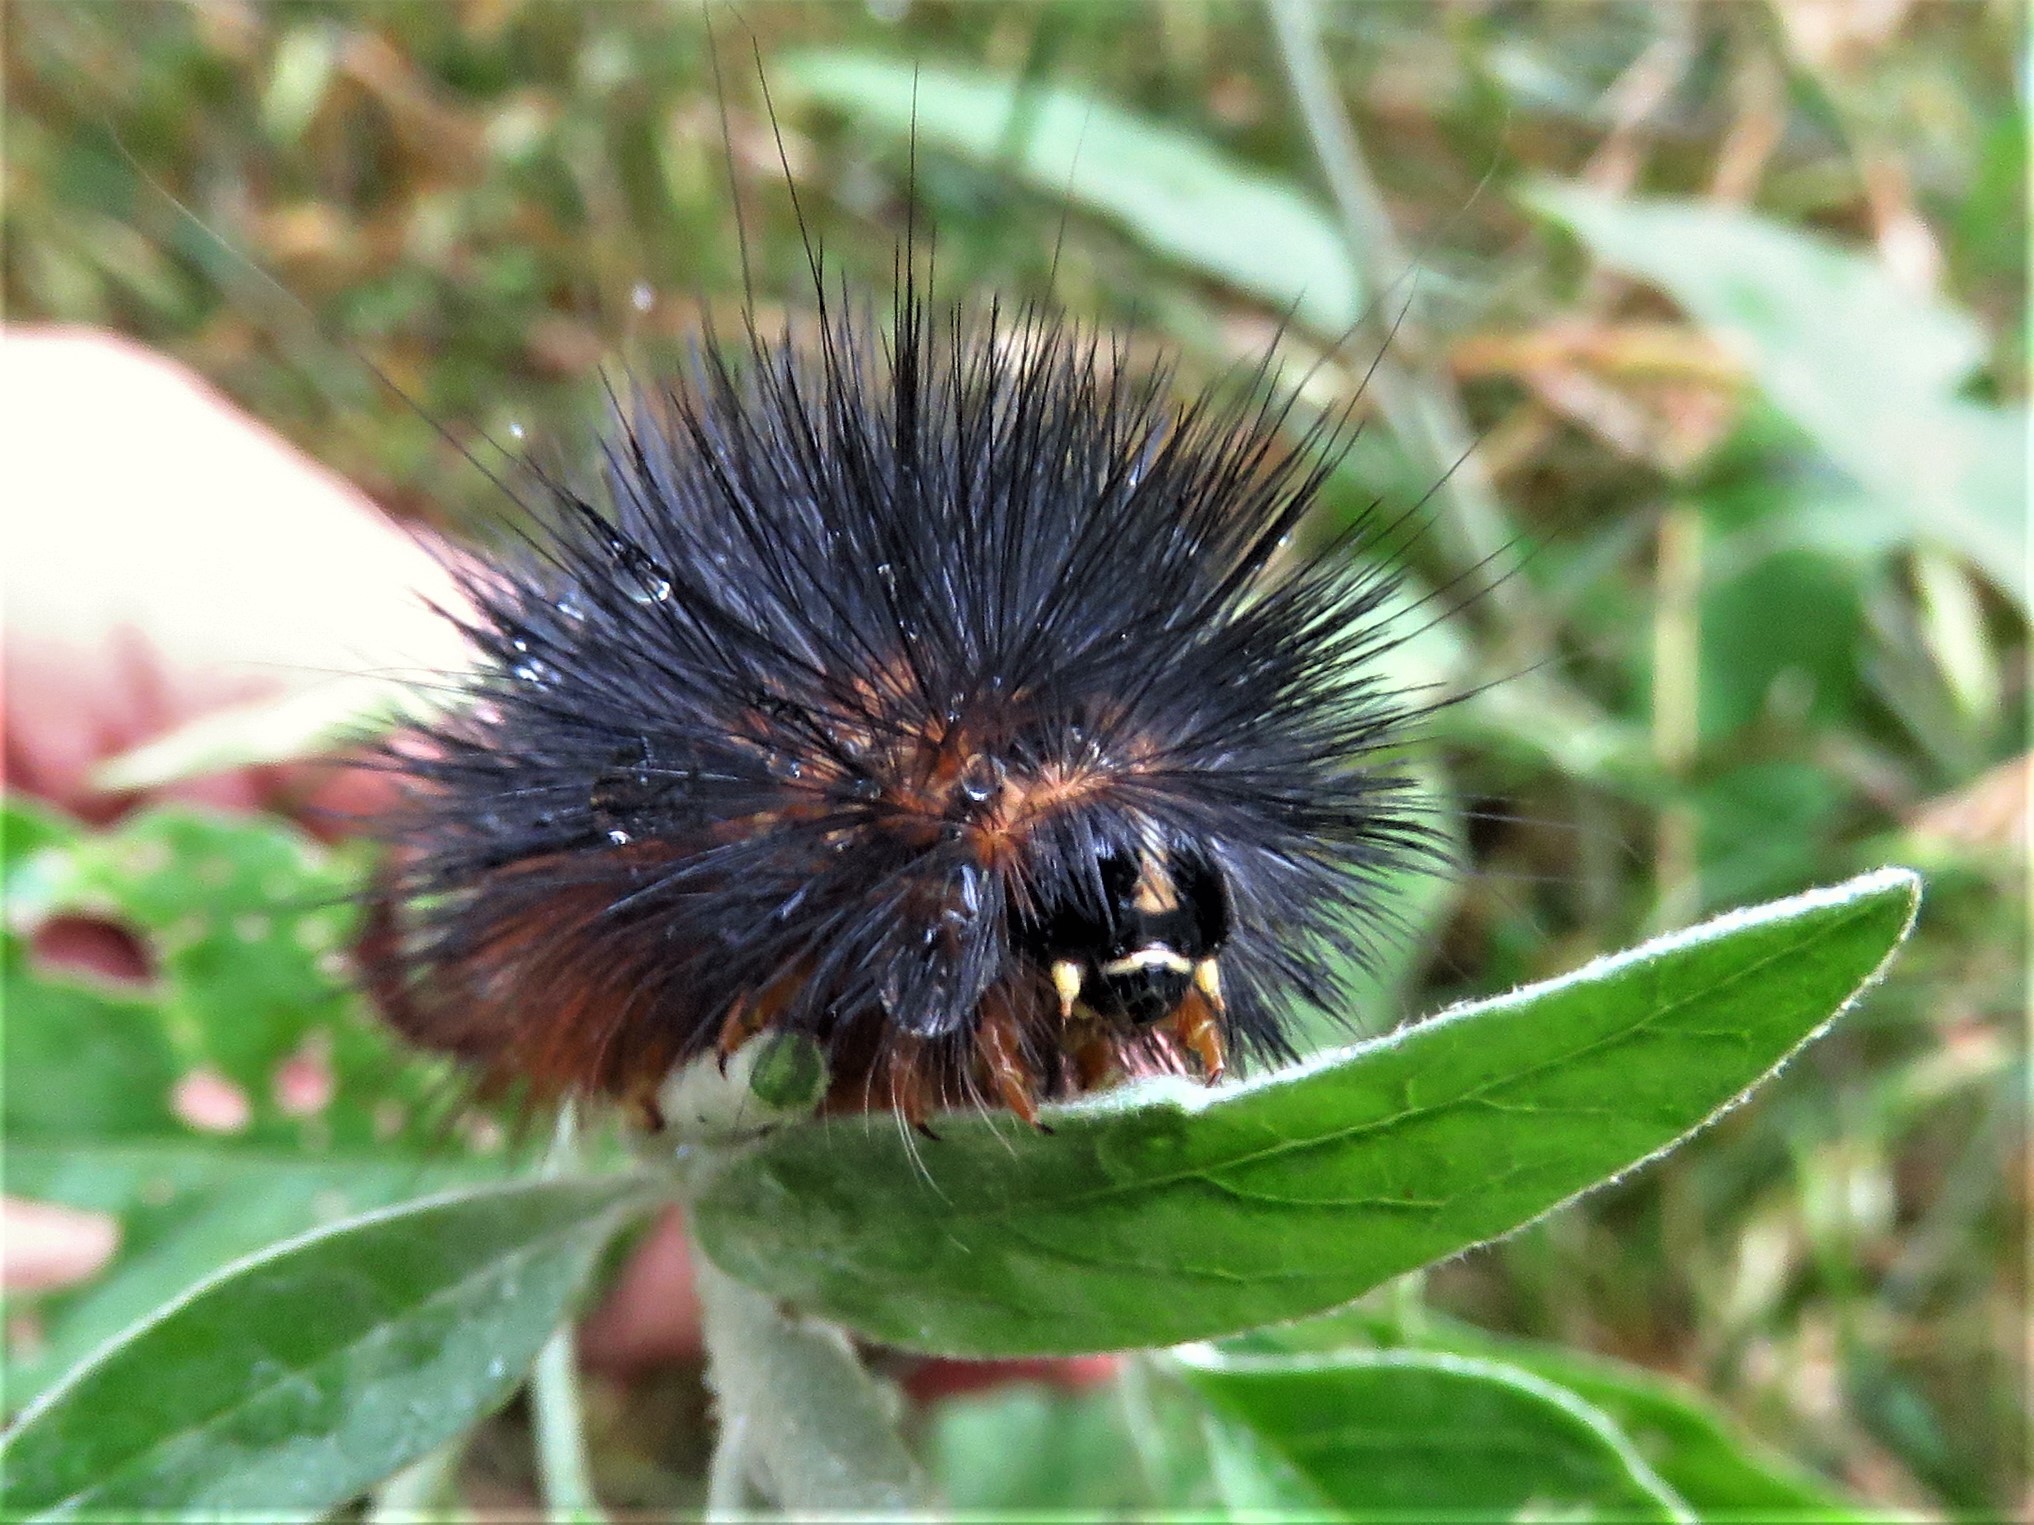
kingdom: Animalia
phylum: Arthropoda
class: Insecta
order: Lepidoptera
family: Erebidae
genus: Estigmene
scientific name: Estigmene acrea
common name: Salt marsh moth
